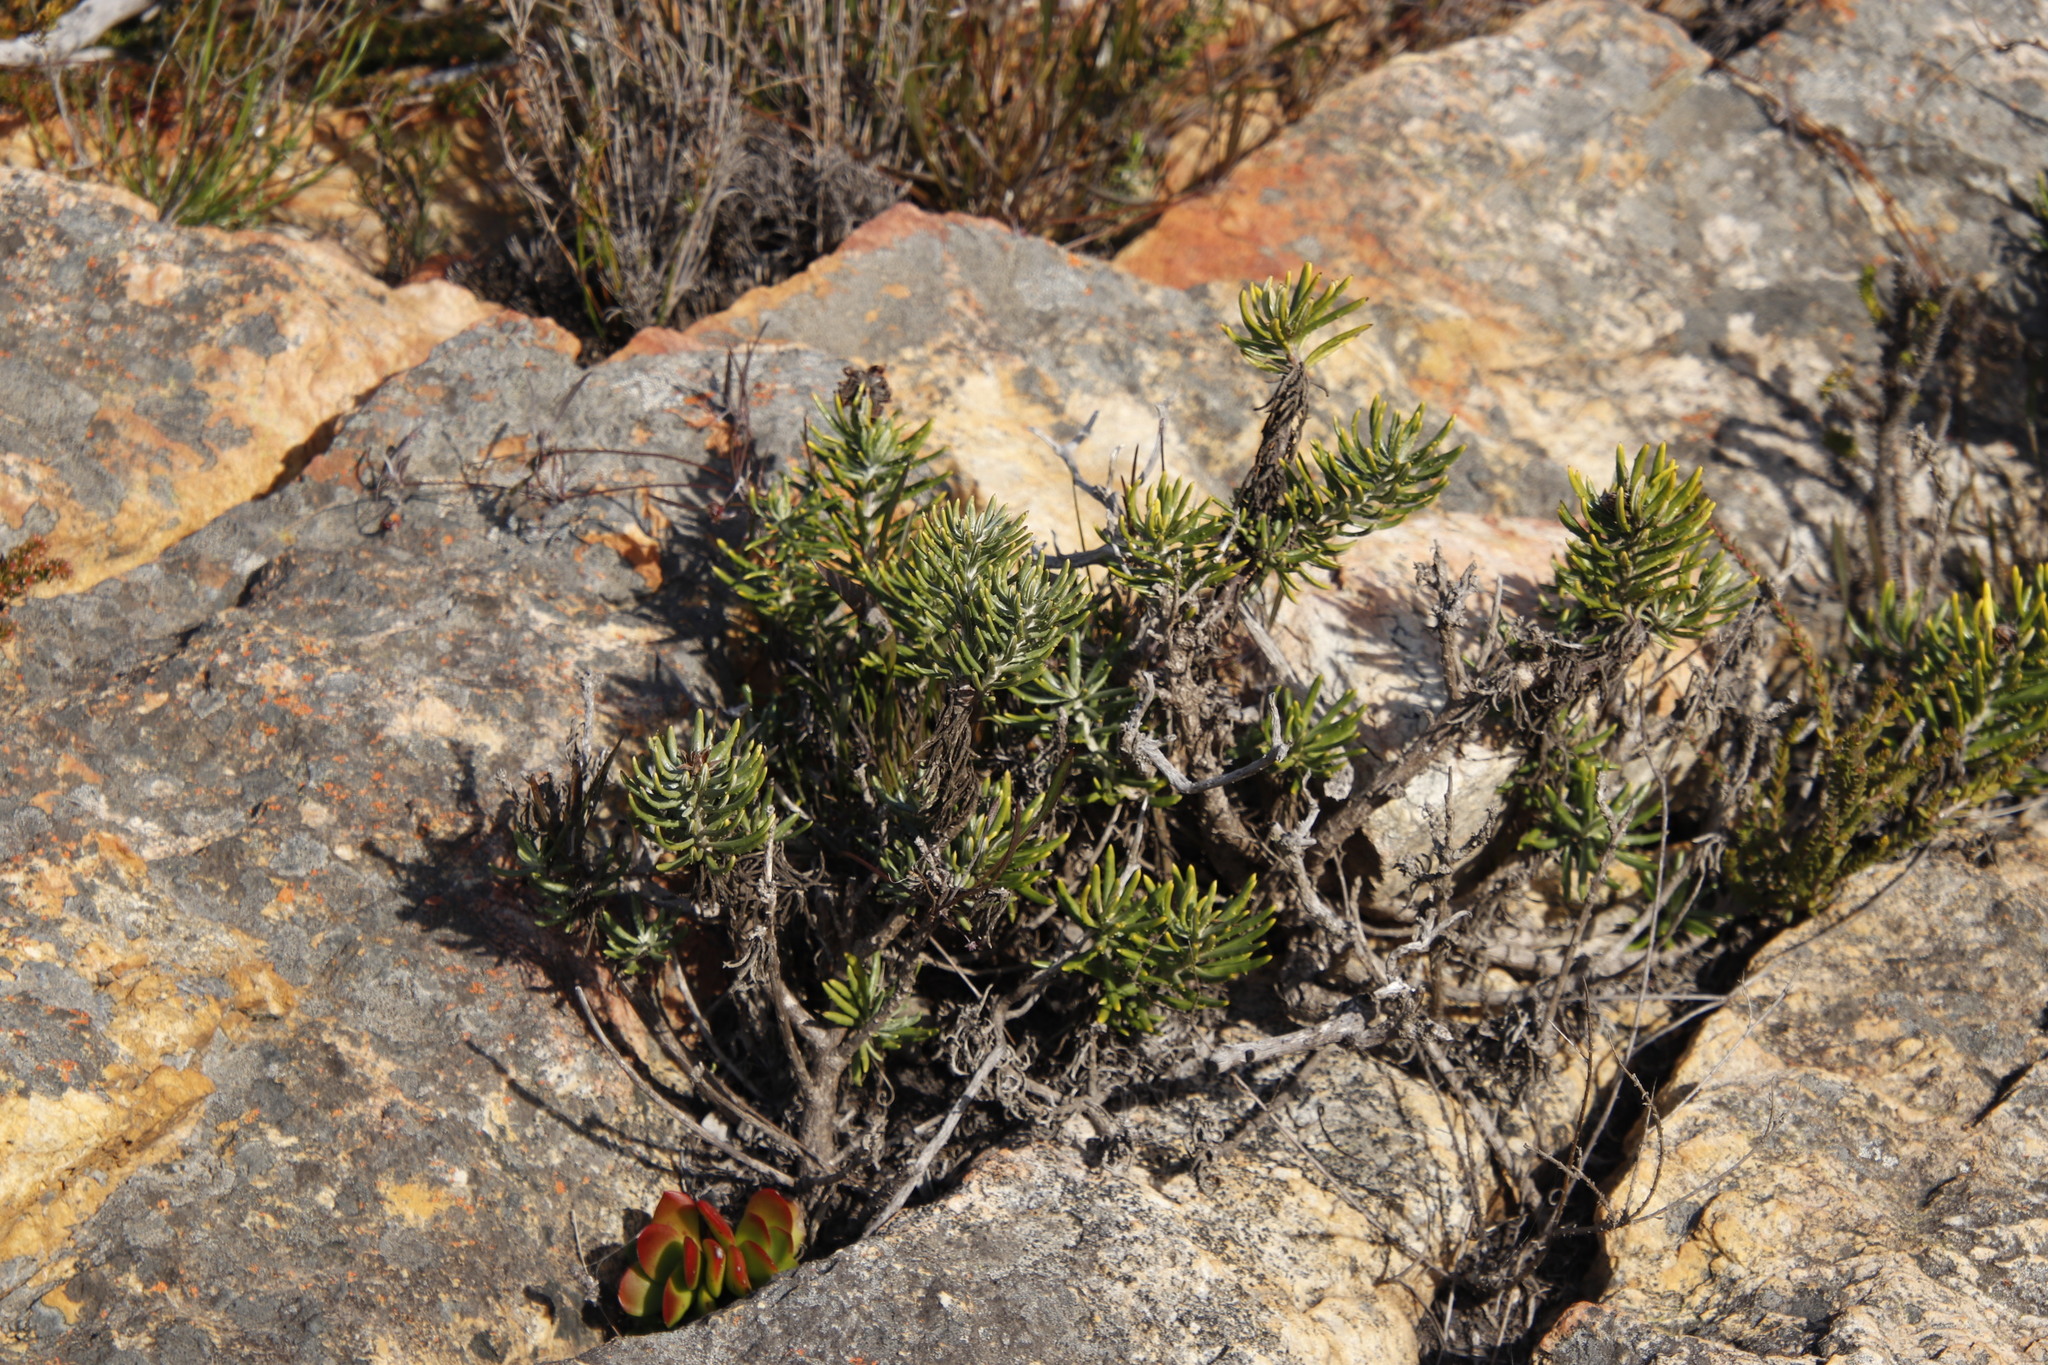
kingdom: Plantae
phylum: Tracheophyta
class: Magnoliopsida
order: Asterales
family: Asteraceae
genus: Heterolepis
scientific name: Heterolepis aliena
